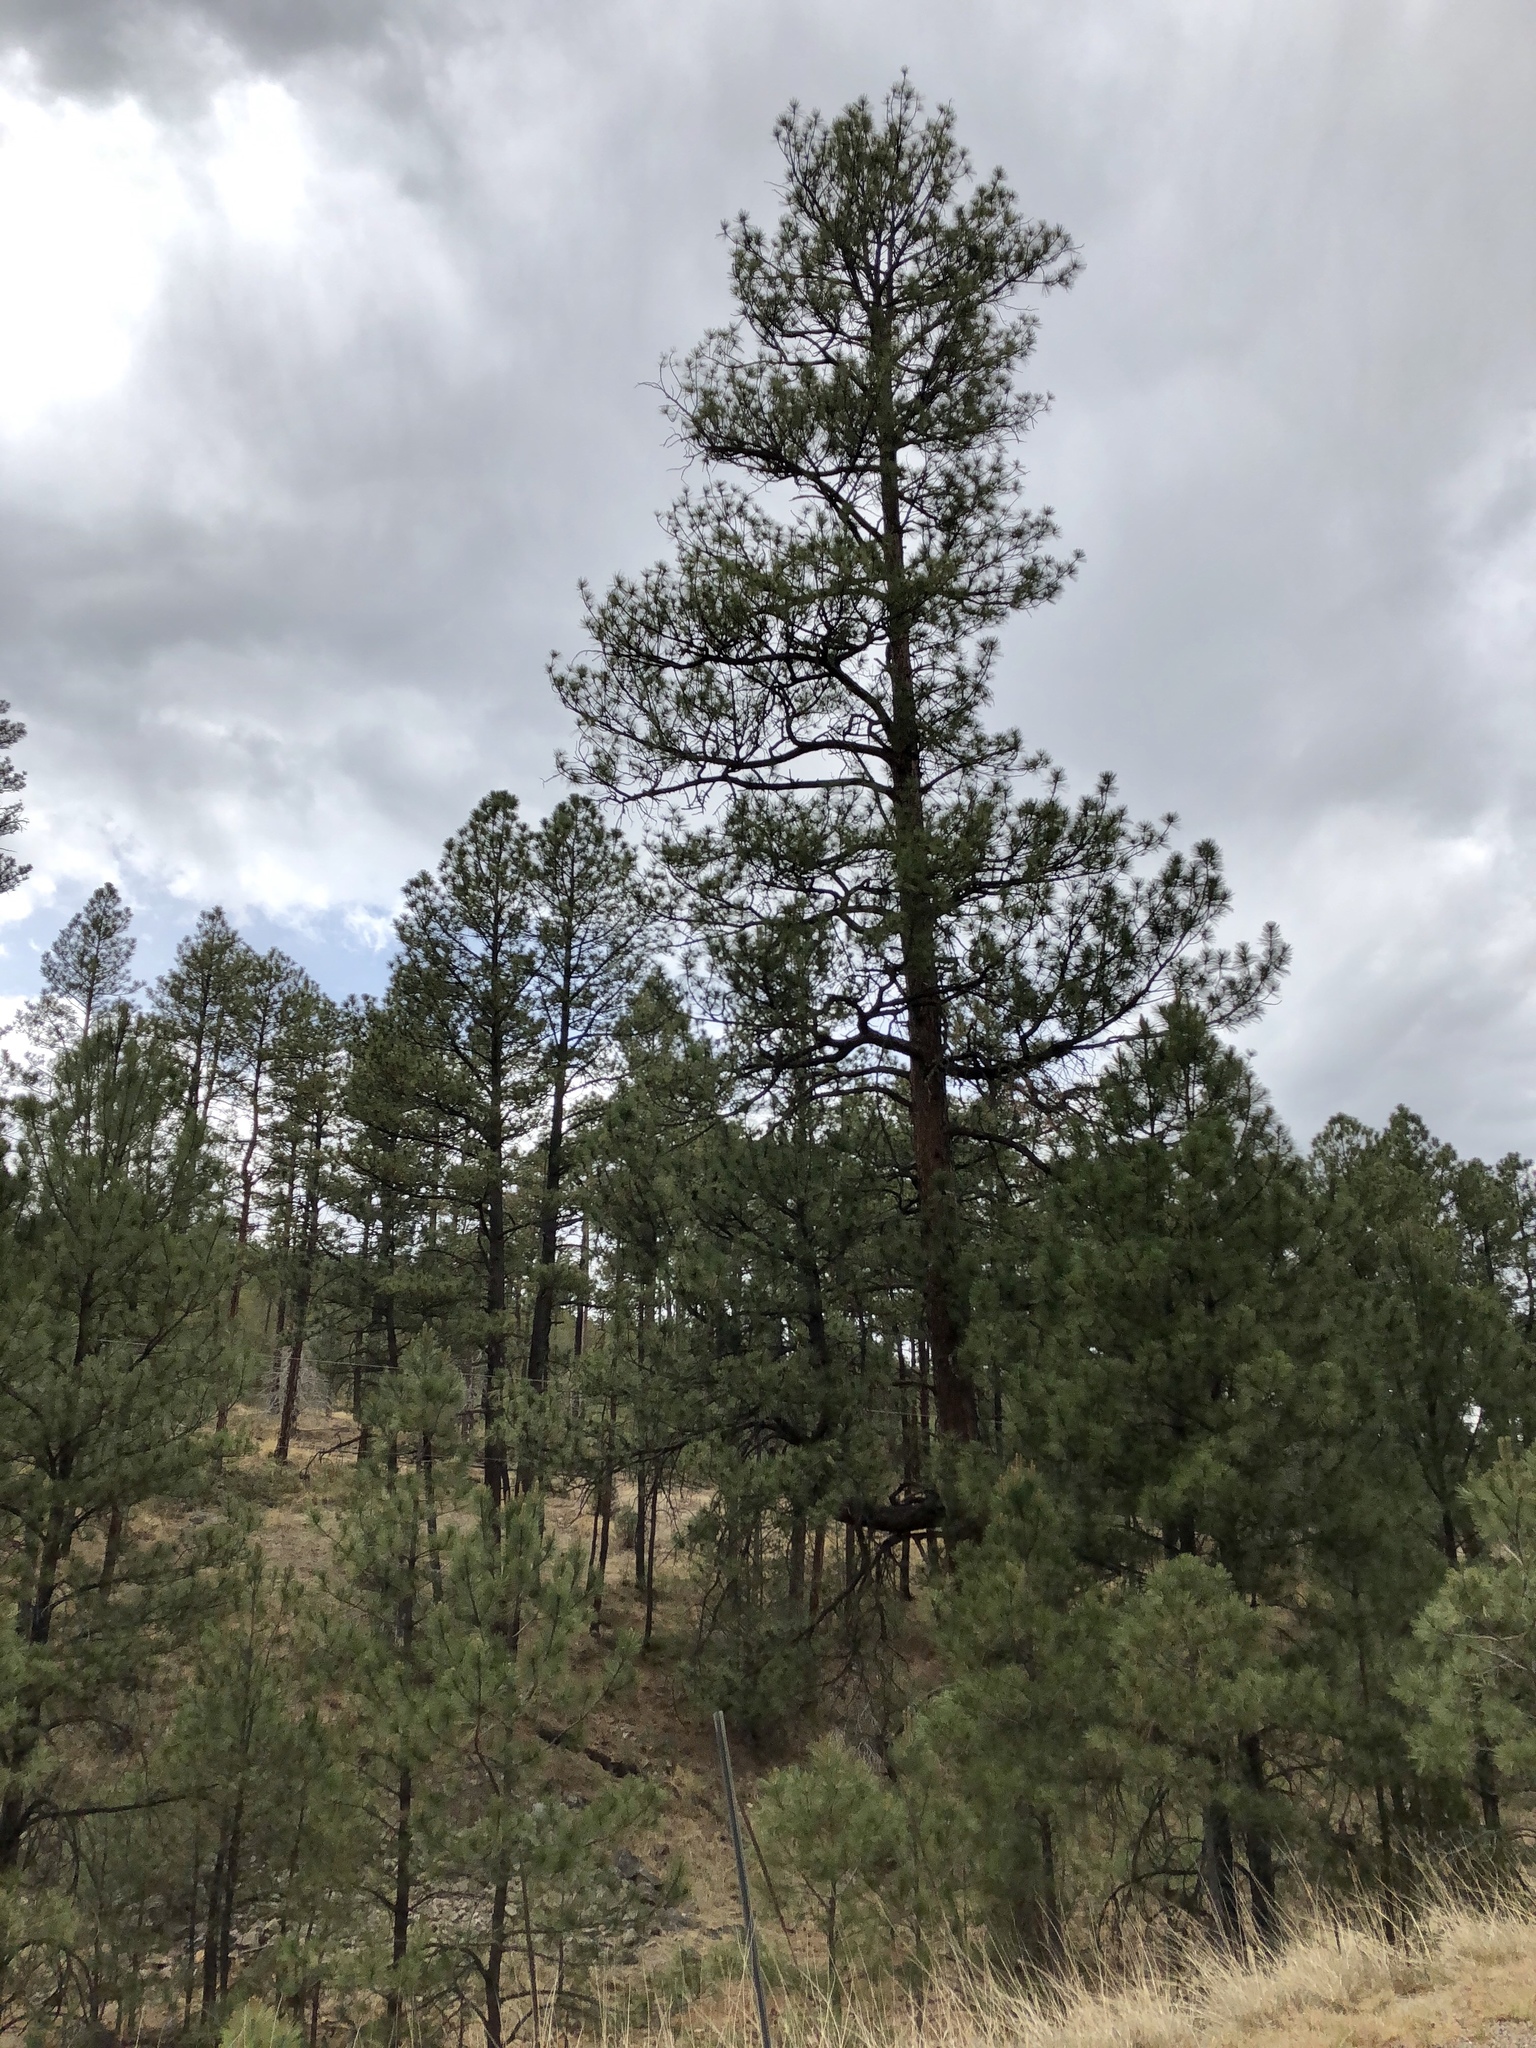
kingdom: Plantae
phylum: Tracheophyta
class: Pinopsida
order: Pinales
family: Pinaceae
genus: Pinus
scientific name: Pinus ponderosa
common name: Western yellow-pine
